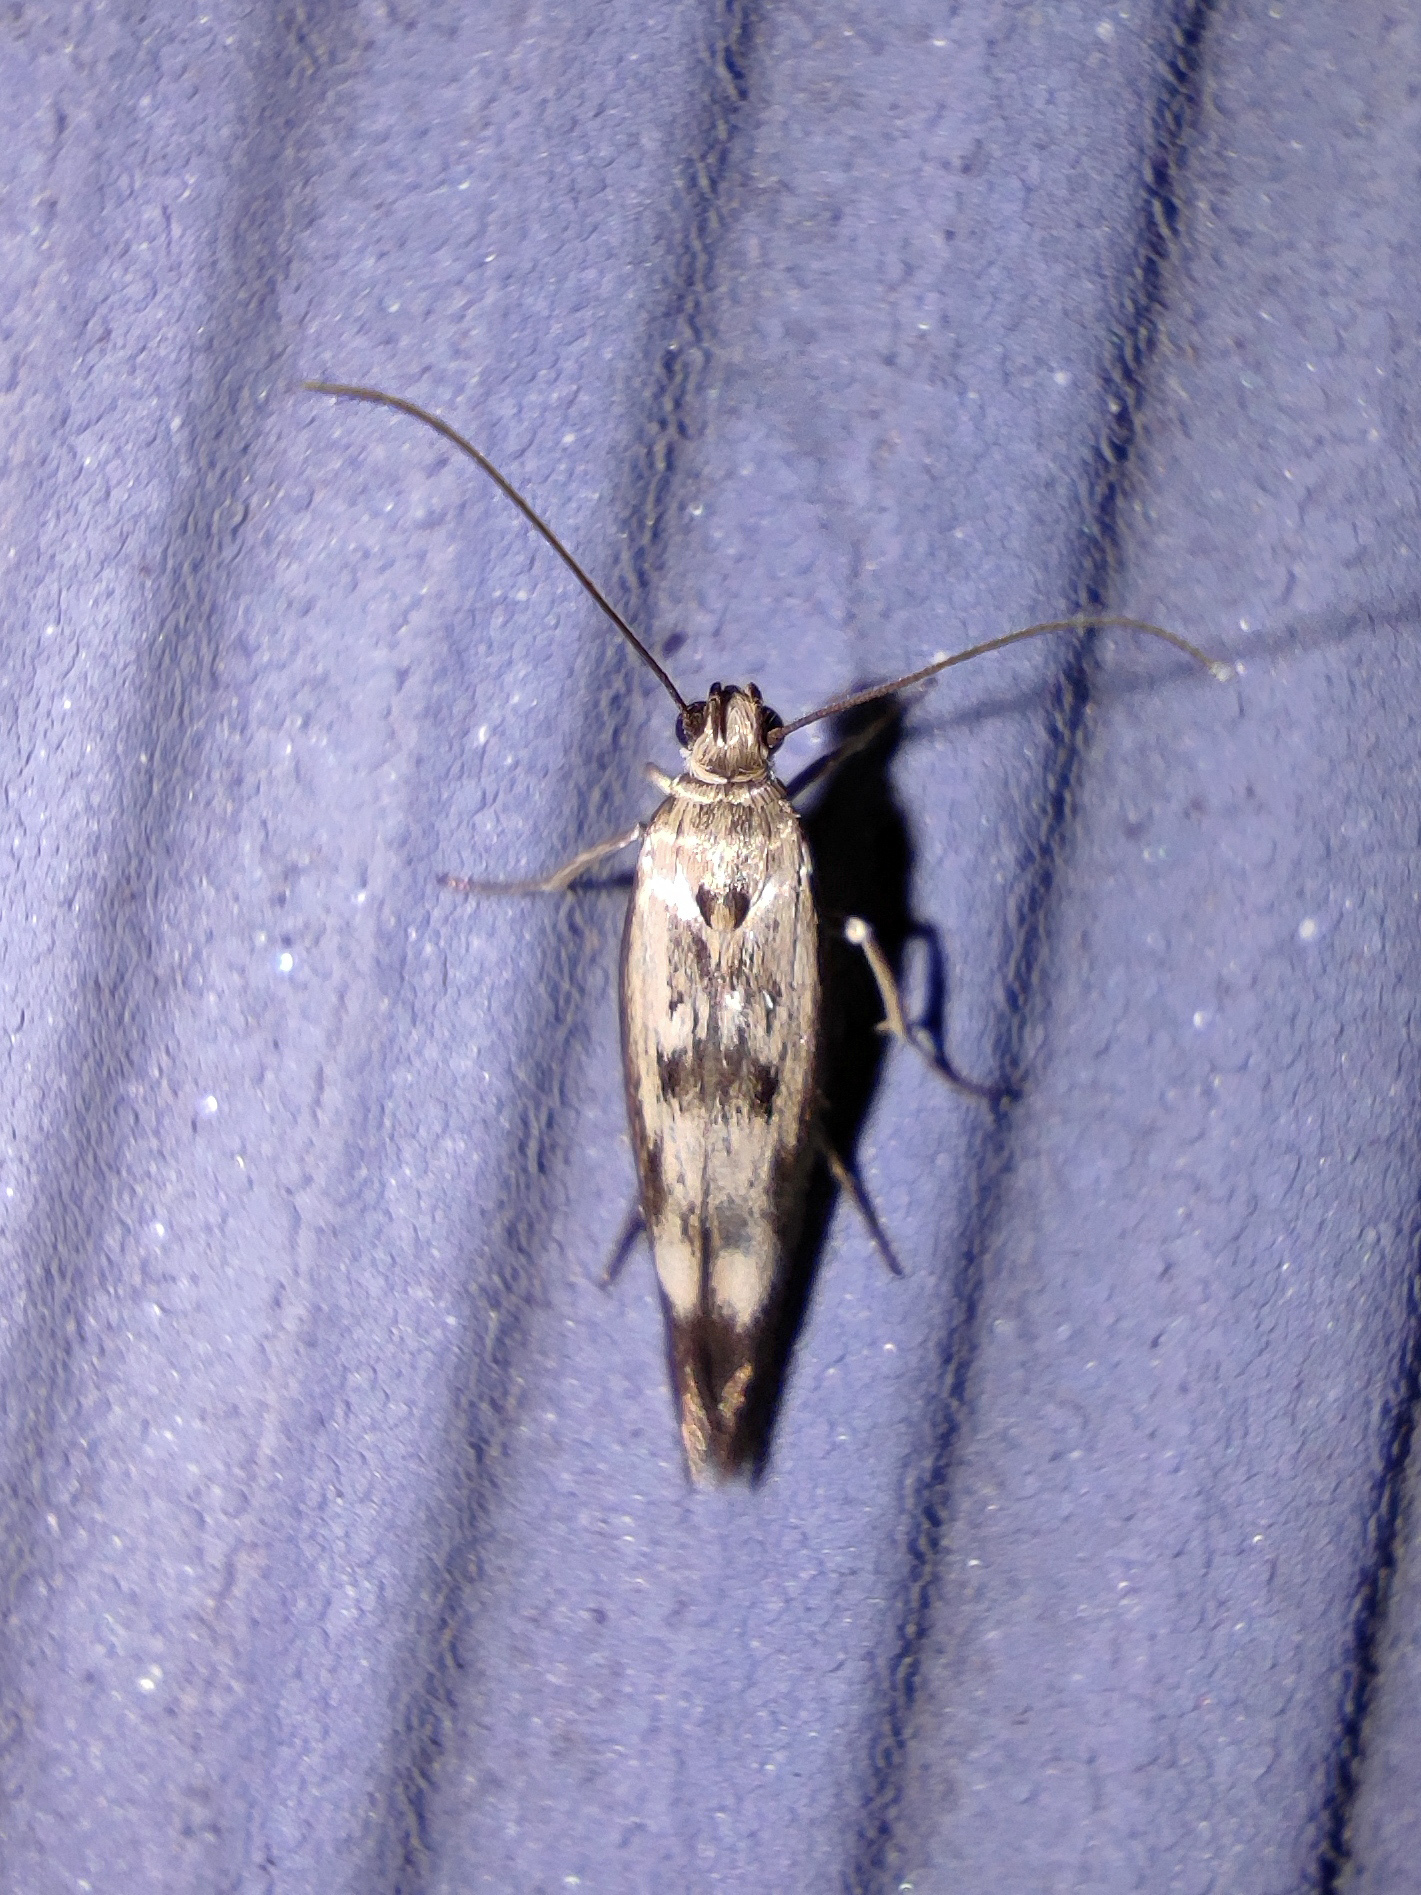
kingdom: Animalia
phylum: Arthropoda
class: Insecta
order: Lepidoptera
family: Scythrididae
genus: Scythris
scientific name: Scythris limbella
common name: Goosefoot owlet
